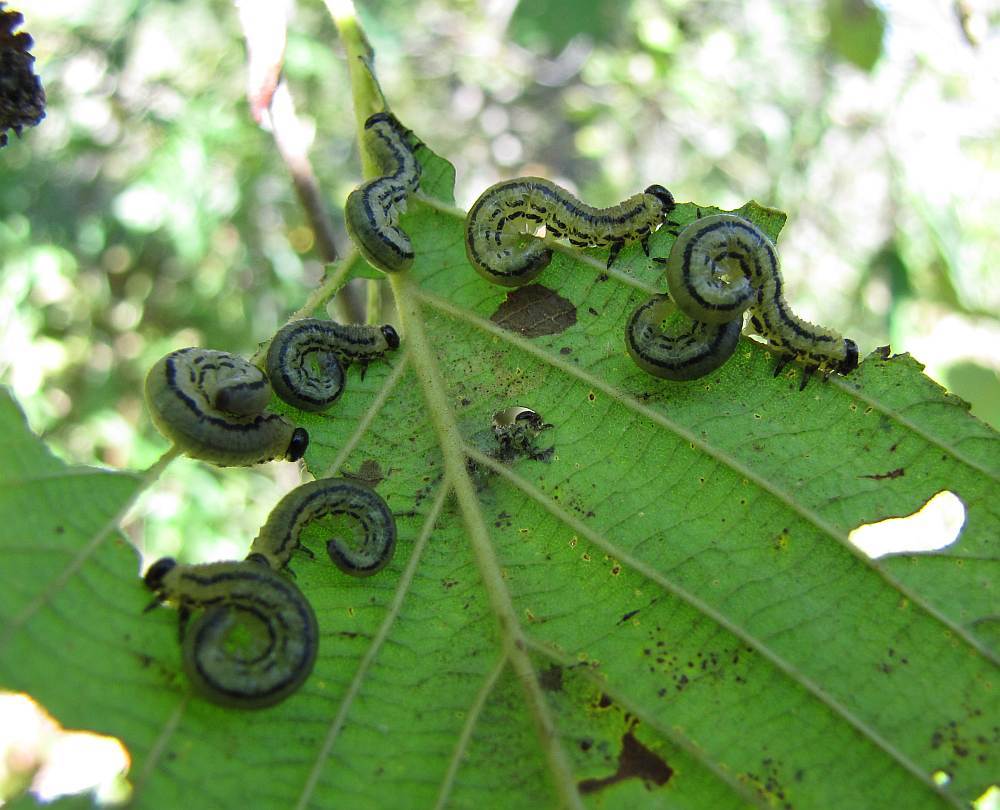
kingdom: Animalia
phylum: Arthropoda
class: Insecta
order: Hymenoptera
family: Tenthredinidae
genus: Hemichroa
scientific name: Hemichroa crocea
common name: Striped alder sawfly
